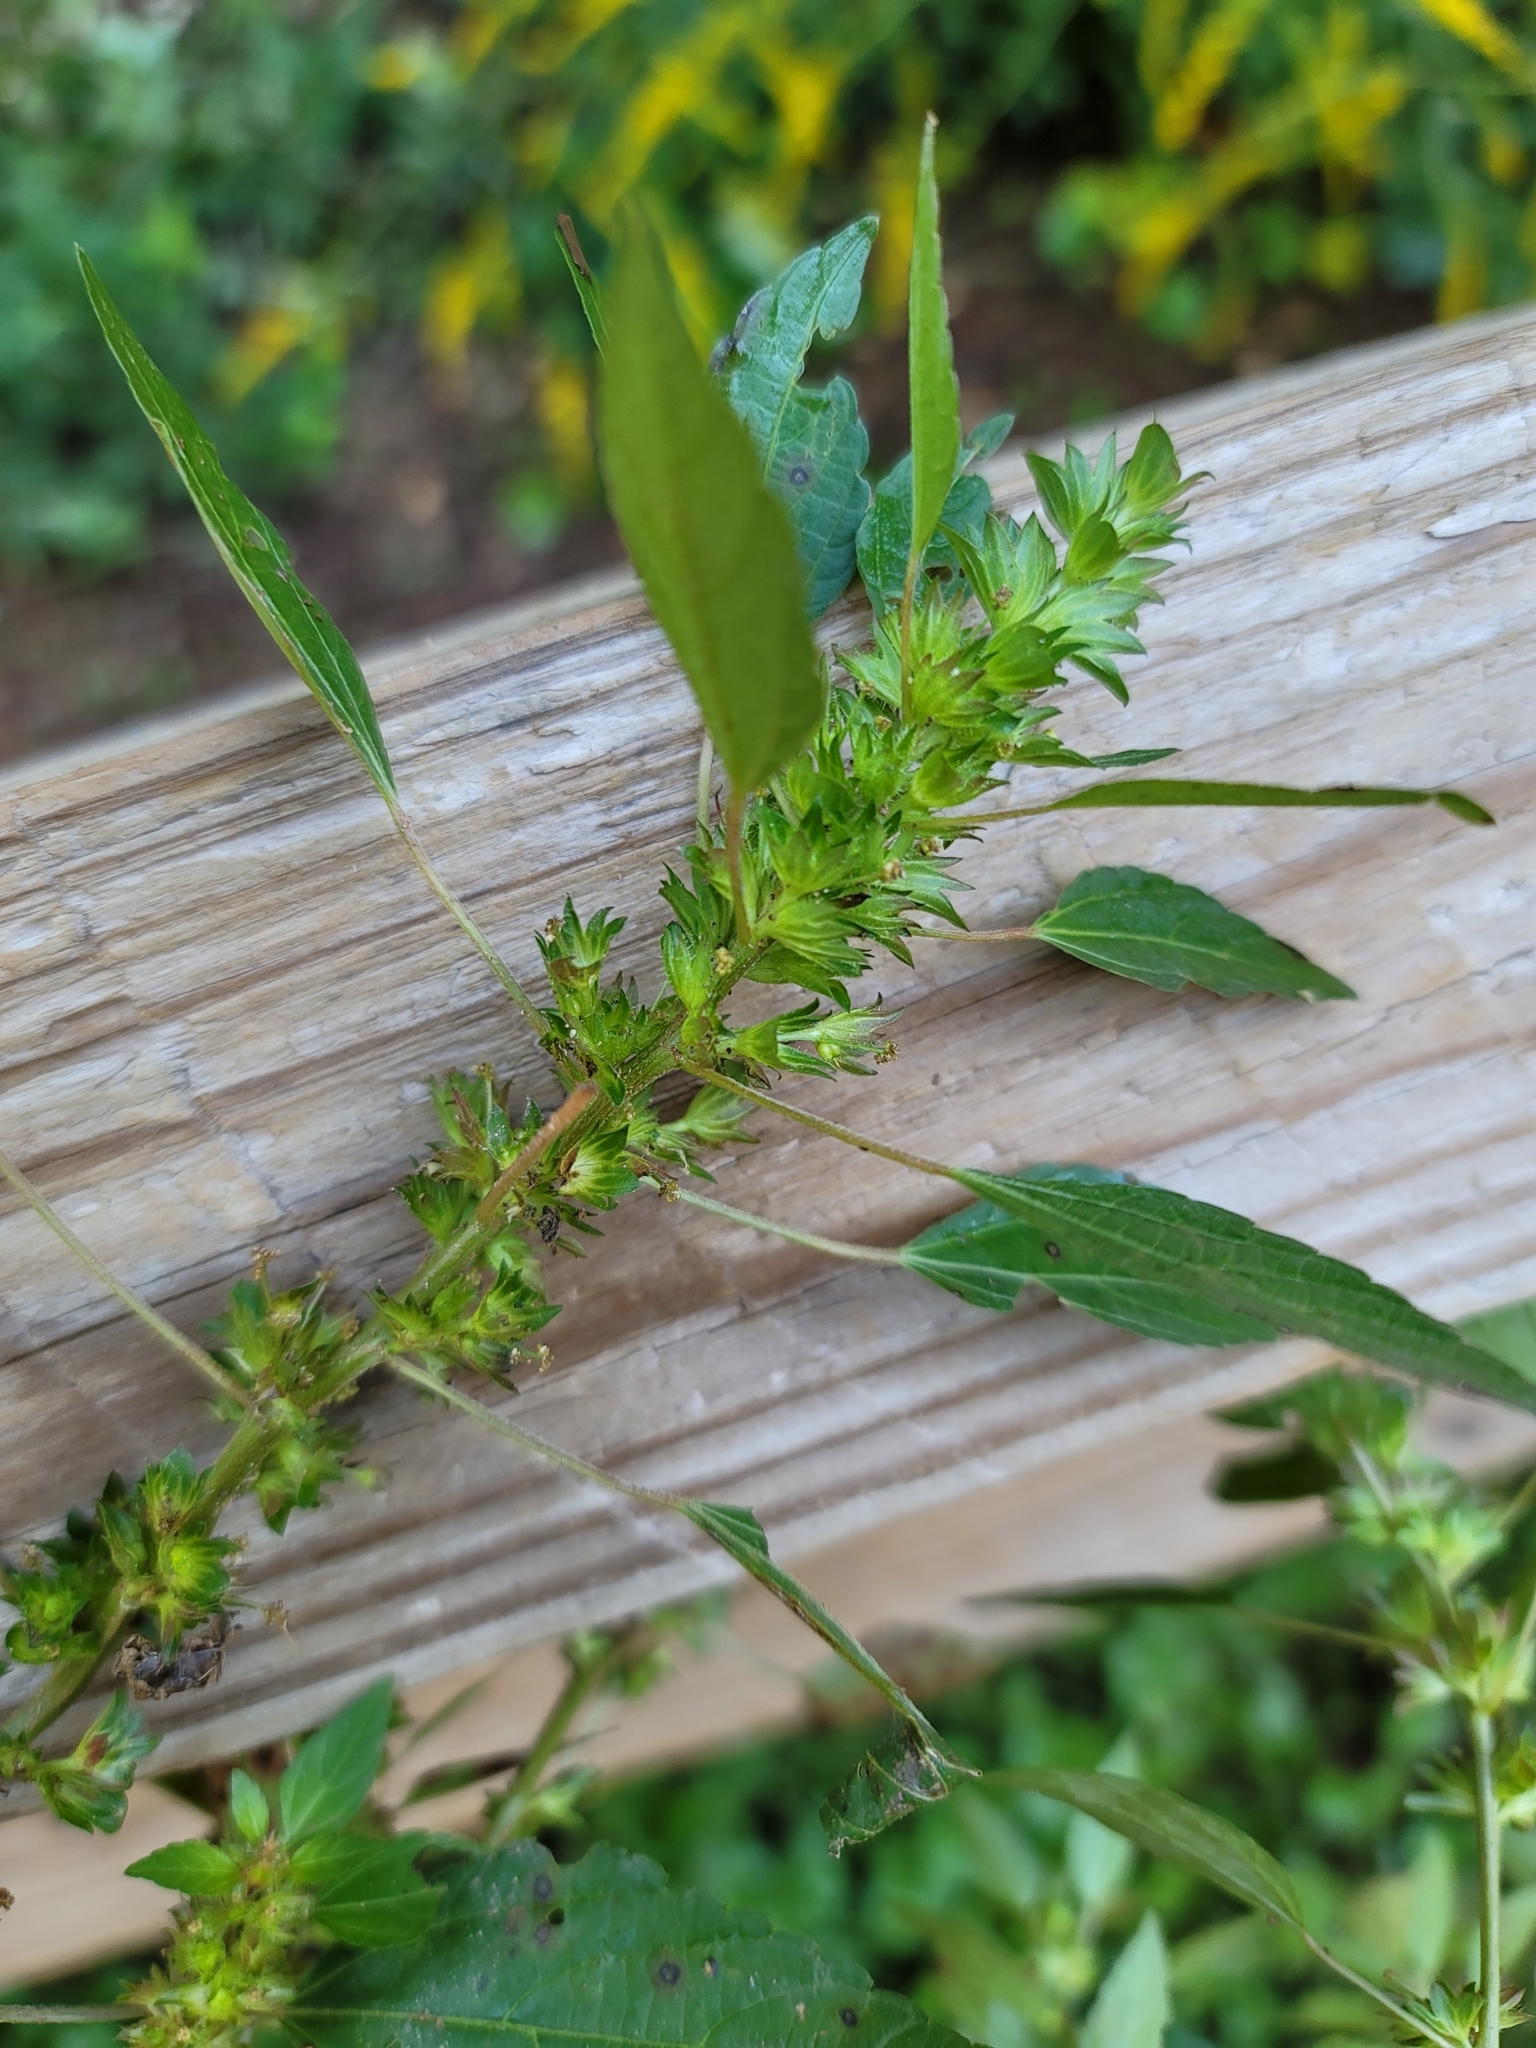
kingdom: Plantae
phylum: Tracheophyta
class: Magnoliopsida
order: Malpighiales
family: Euphorbiaceae
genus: Acalypha
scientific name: Acalypha rhomboidea
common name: Rhombic copperleaf
